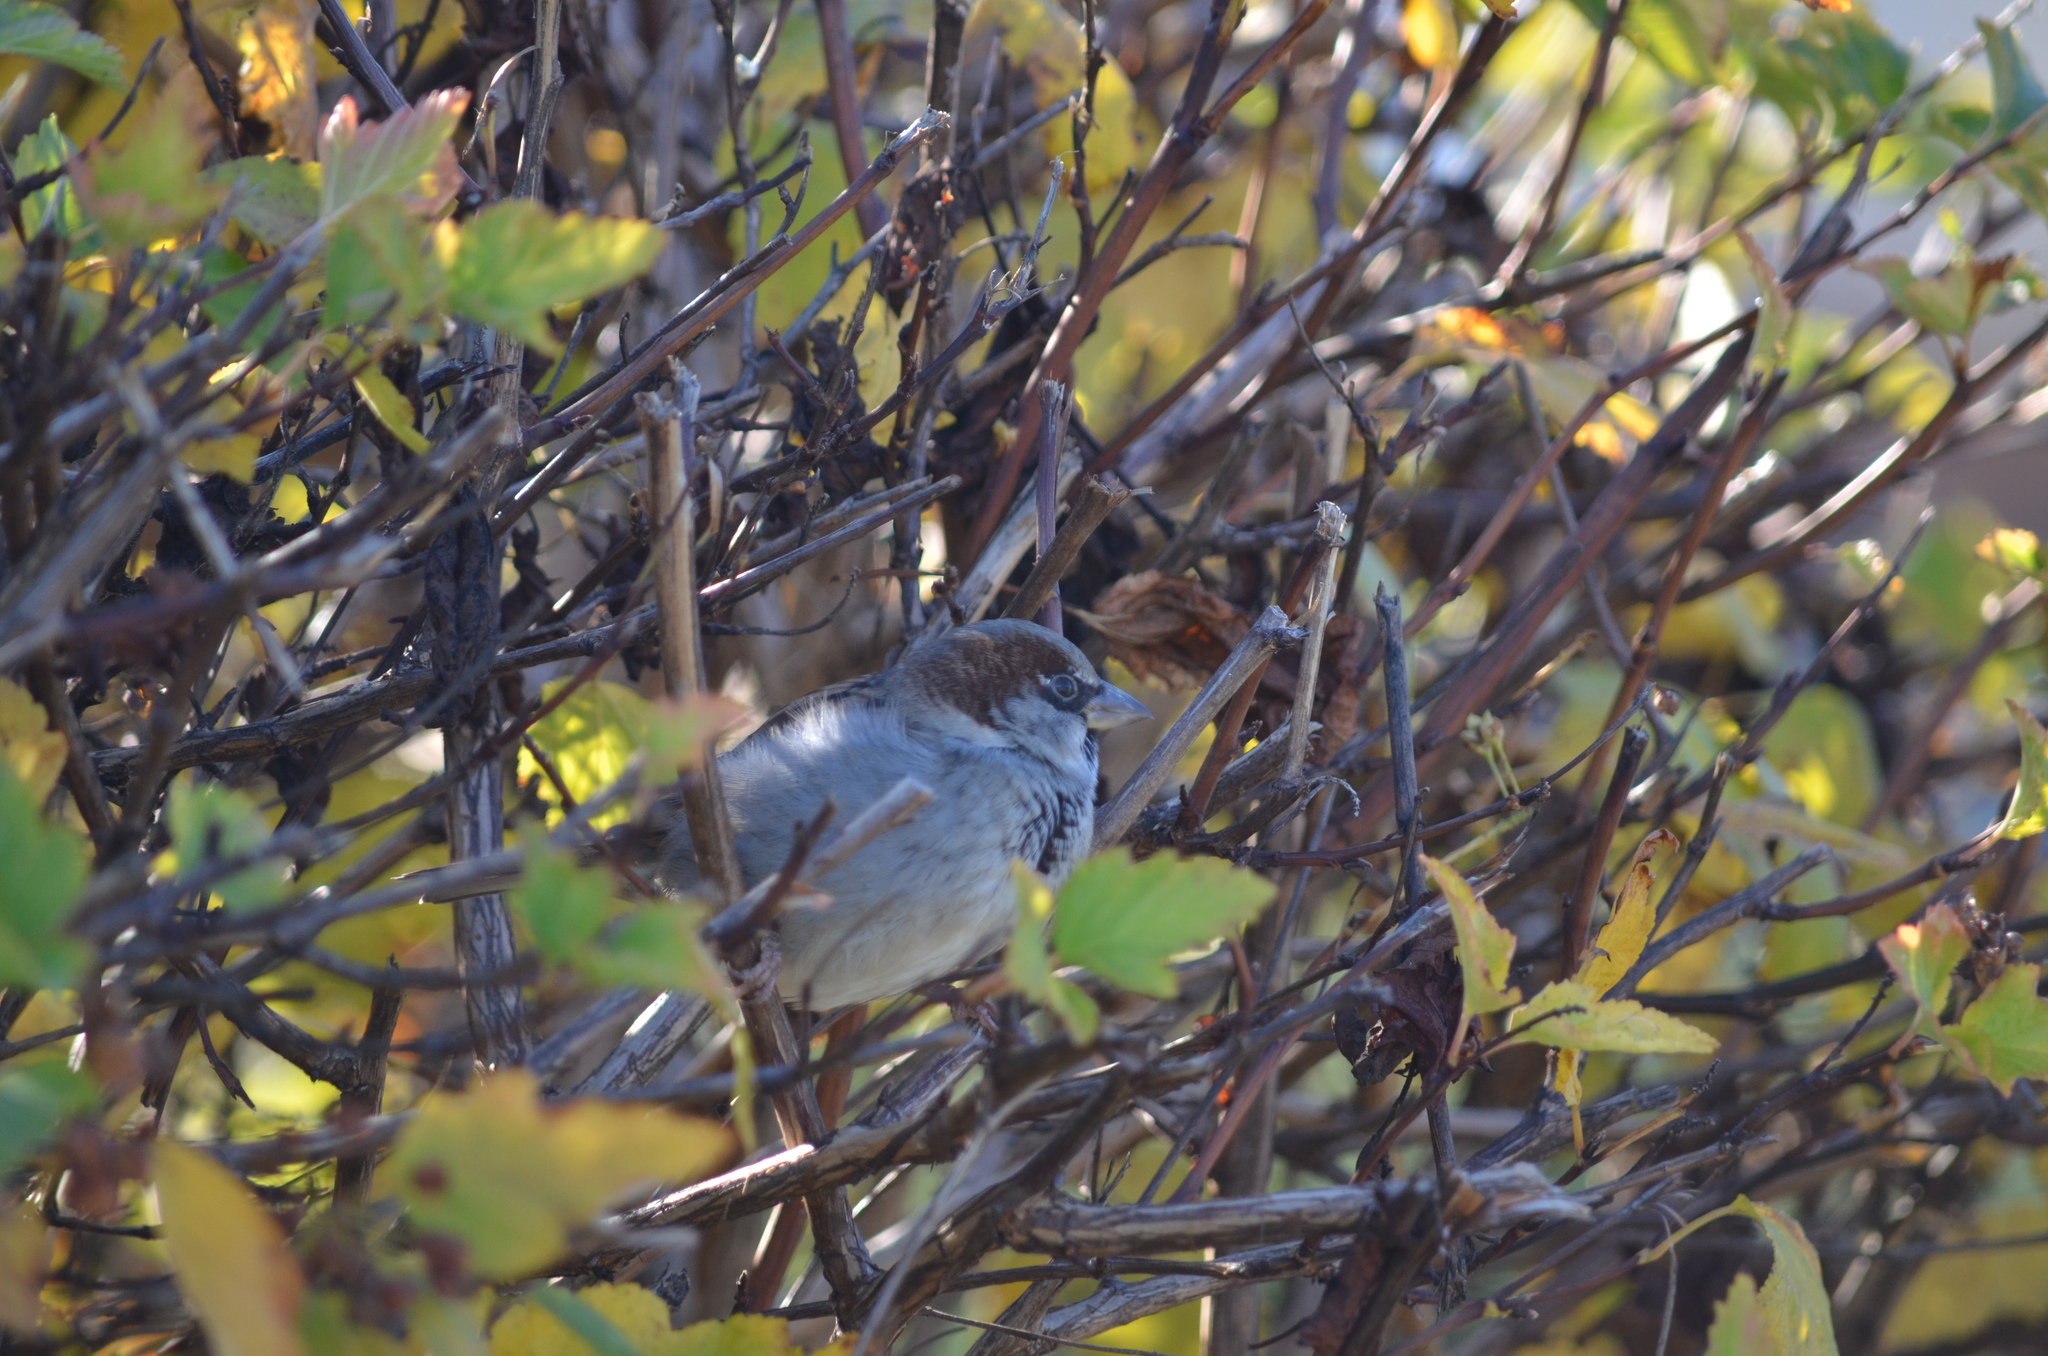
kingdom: Animalia
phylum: Chordata
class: Aves
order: Passeriformes
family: Passeridae
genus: Passer
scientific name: Passer domesticus
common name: House sparrow
